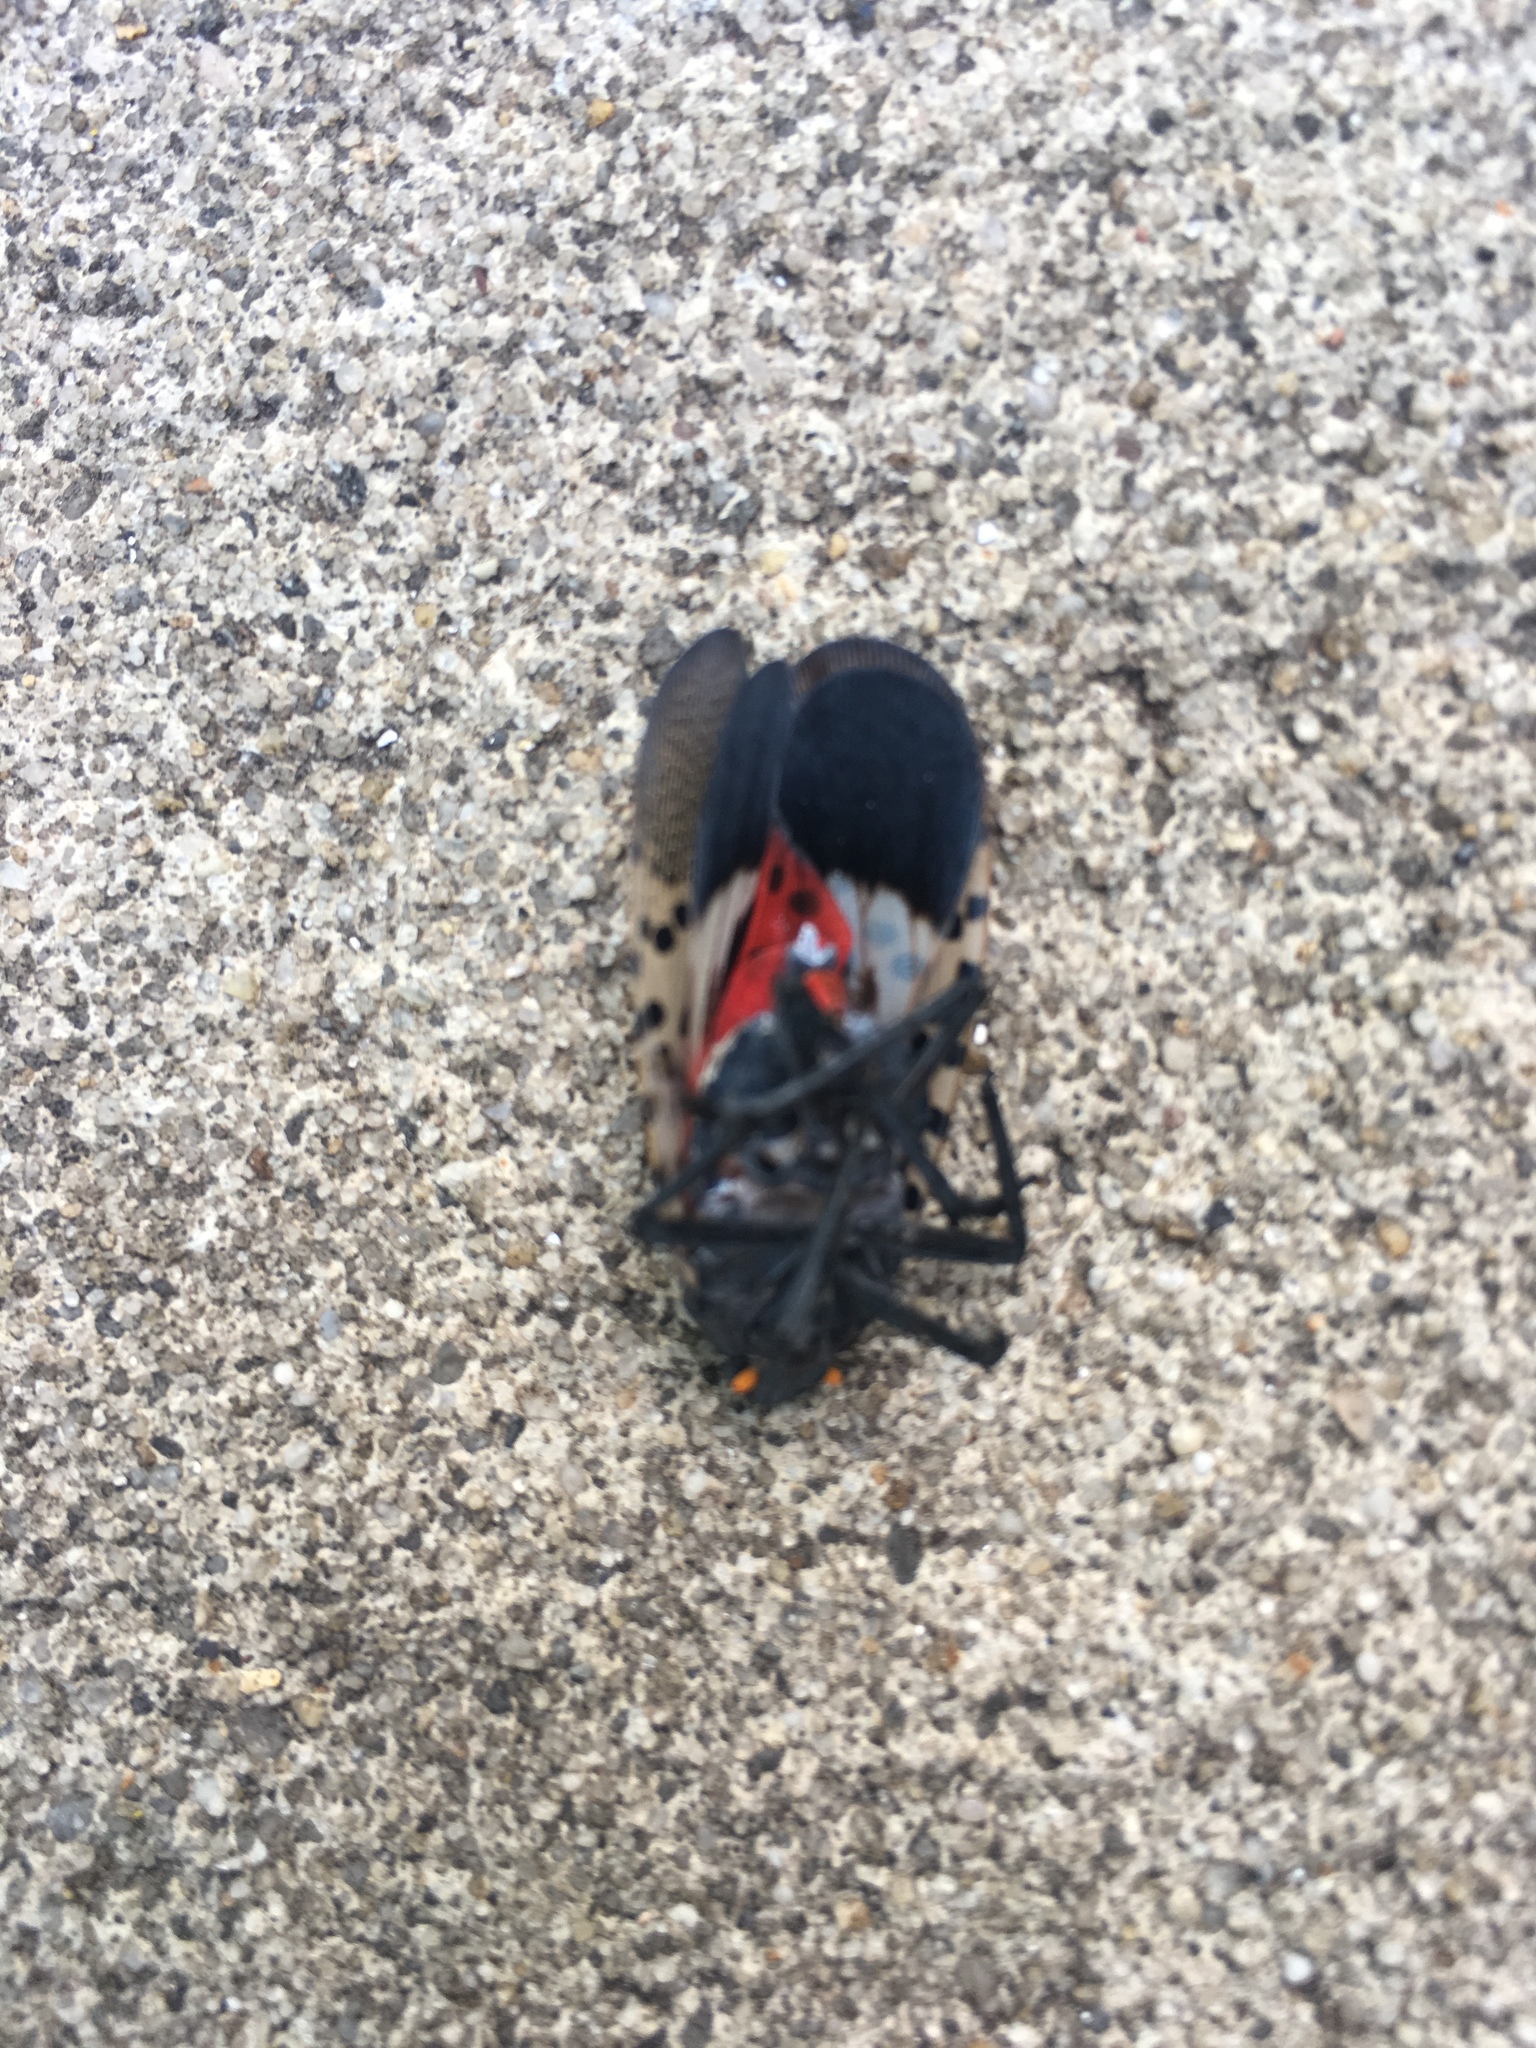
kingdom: Animalia
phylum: Arthropoda
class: Insecta
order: Hemiptera
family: Fulgoridae
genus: Lycorma
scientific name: Lycorma delicatula
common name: Spotted lanternfly
